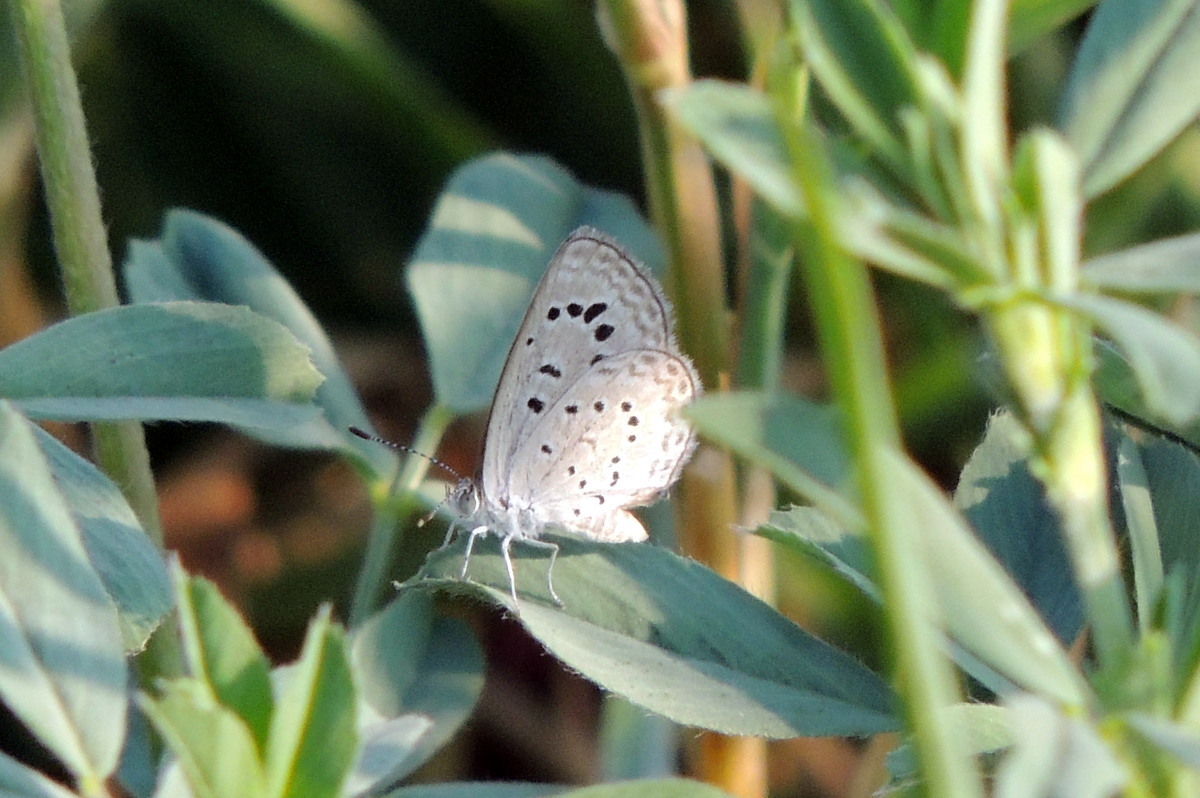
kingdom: Animalia
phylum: Arthropoda
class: Insecta
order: Lepidoptera
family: Lycaenidae
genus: Zizeeria
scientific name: Zizeeria karsandra
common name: Dark grass blue
